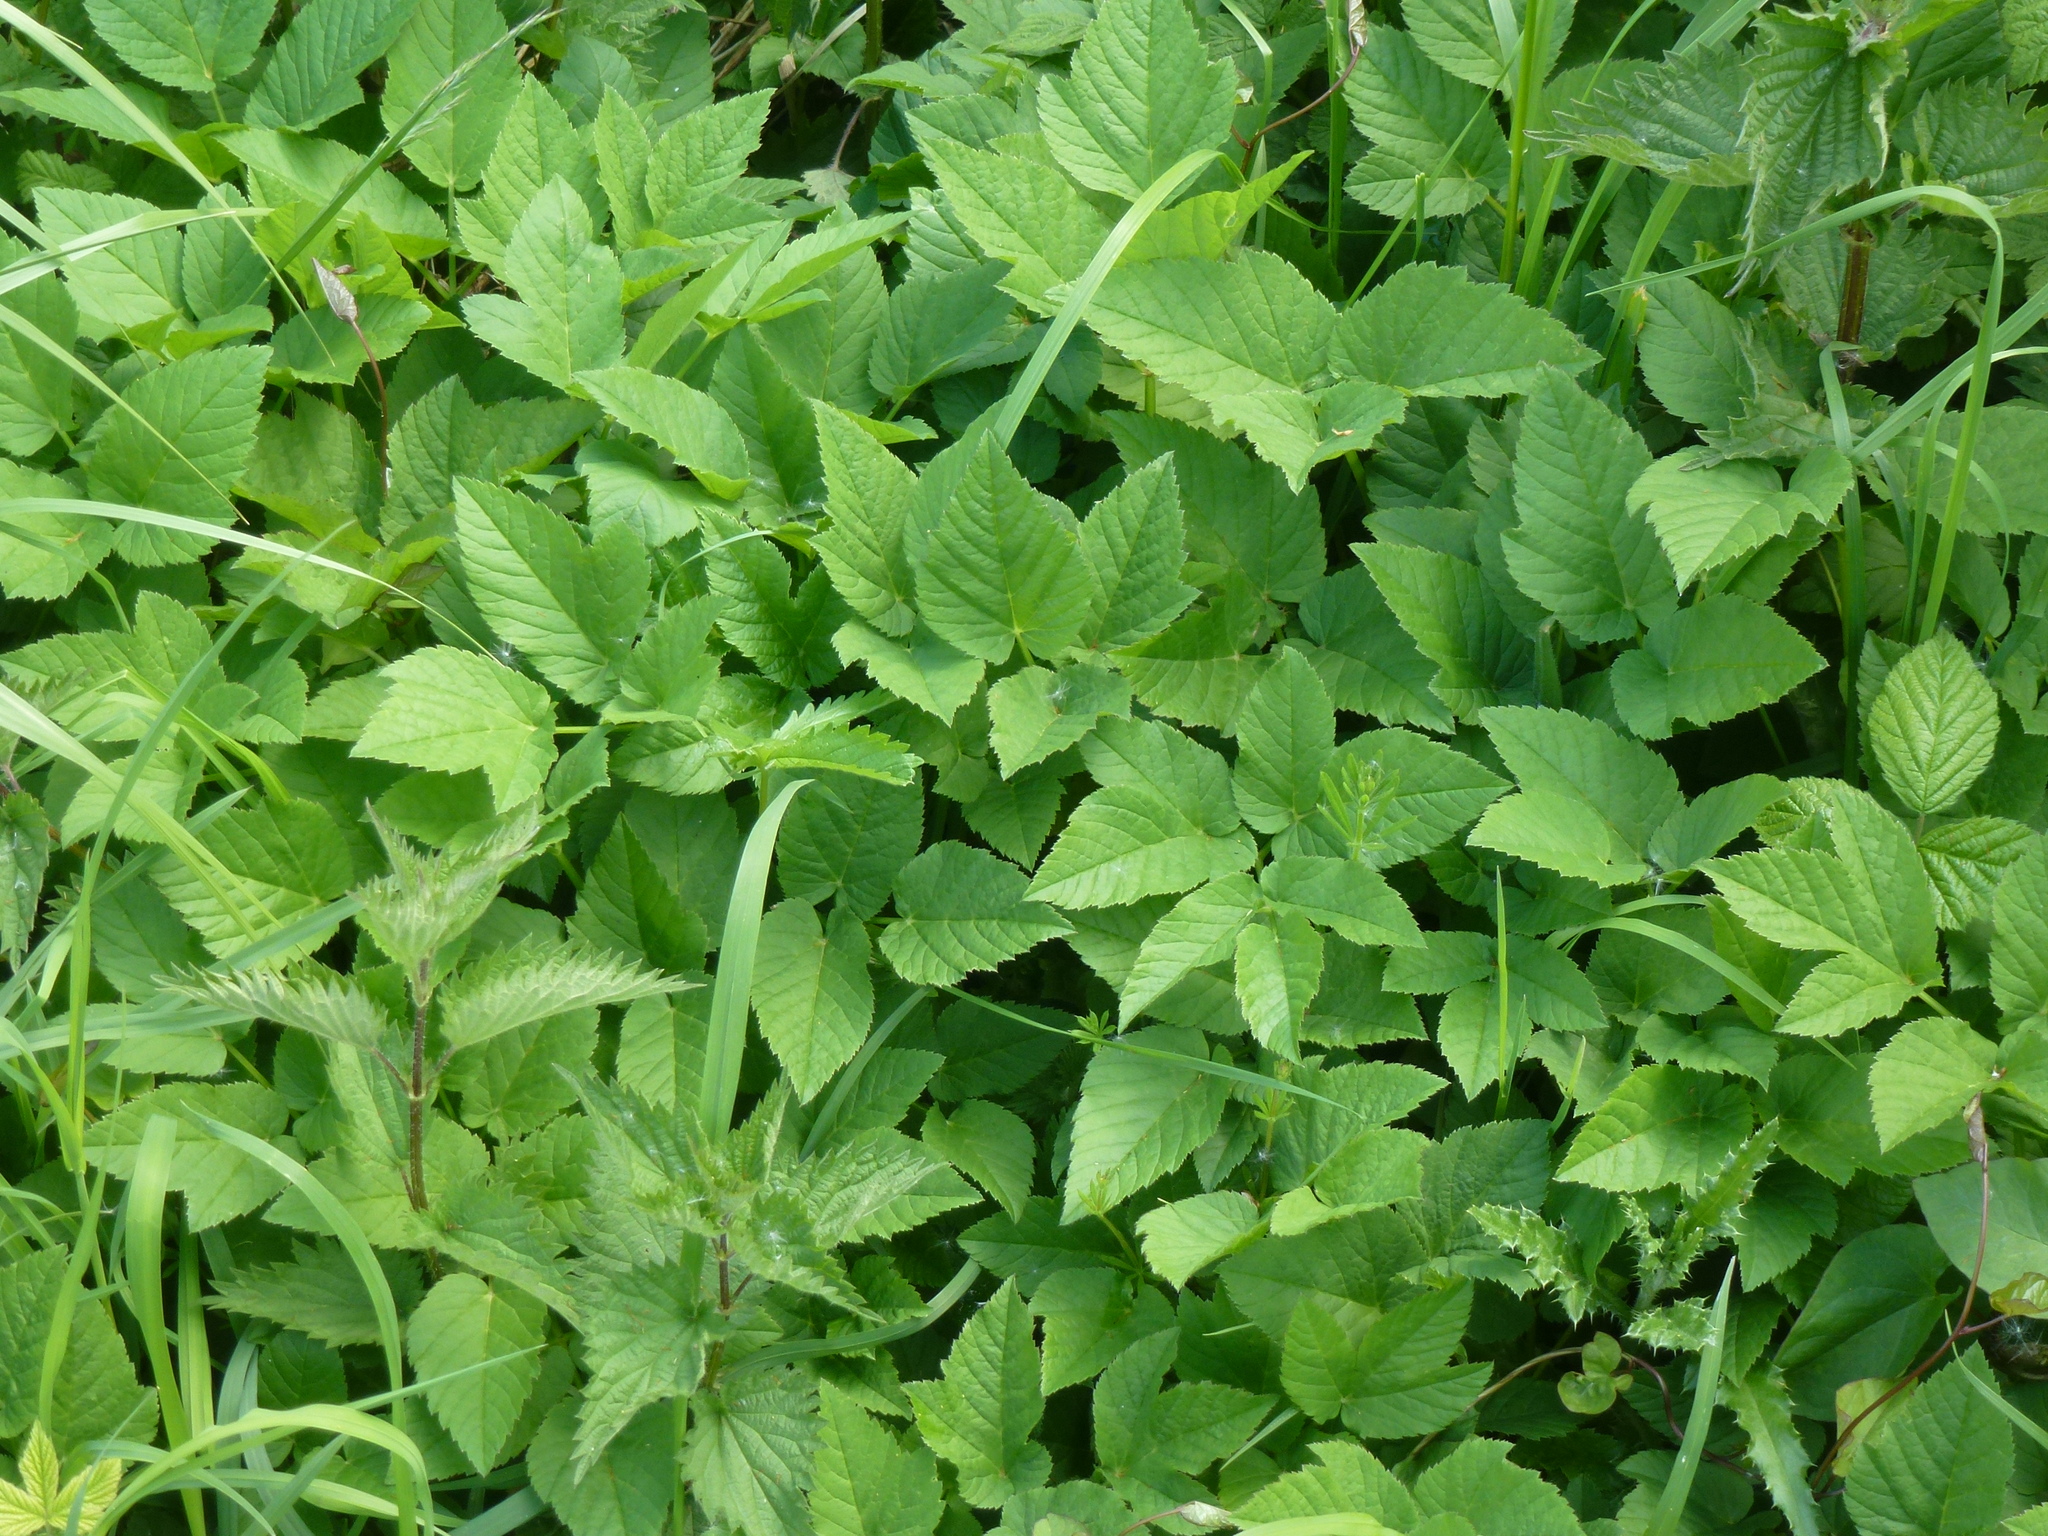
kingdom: Plantae
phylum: Tracheophyta
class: Magnoliopsida
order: Apiales
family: Apiaceae
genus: Aegopodium
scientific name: Aegopodium podagraria
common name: Ground-elder
